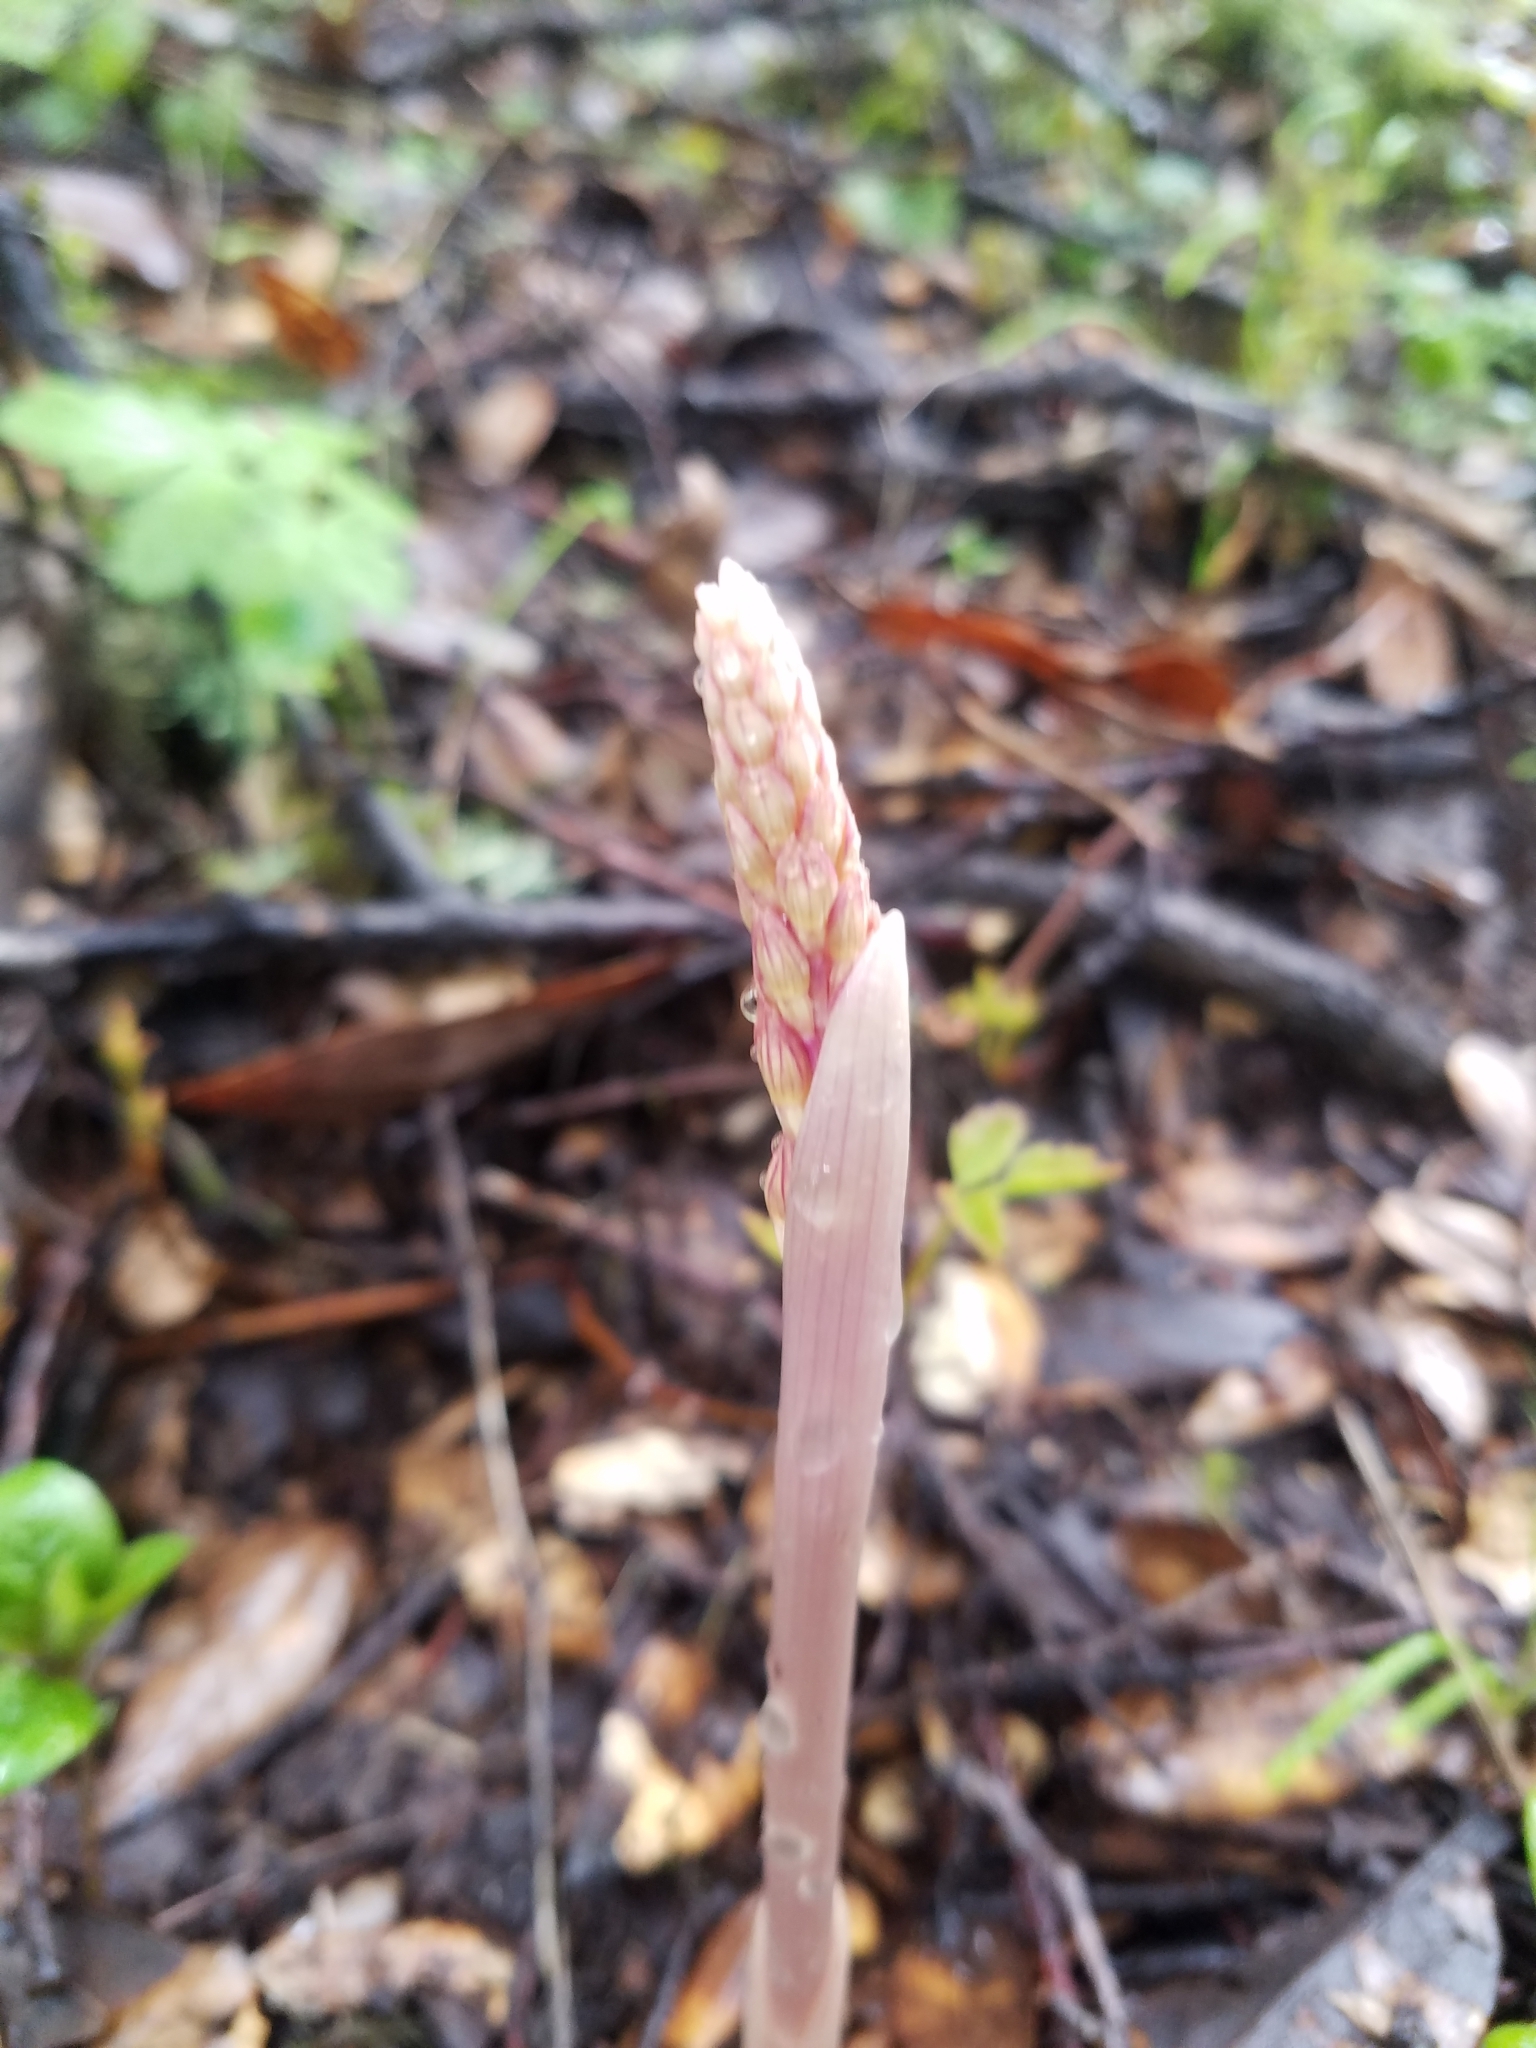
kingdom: Plantae
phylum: Tracheophyta
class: Liliopsida
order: Asparagales
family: Orchidaceae
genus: Corallorhiza
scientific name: Corallorhiza striata
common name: Hooded coralroot
